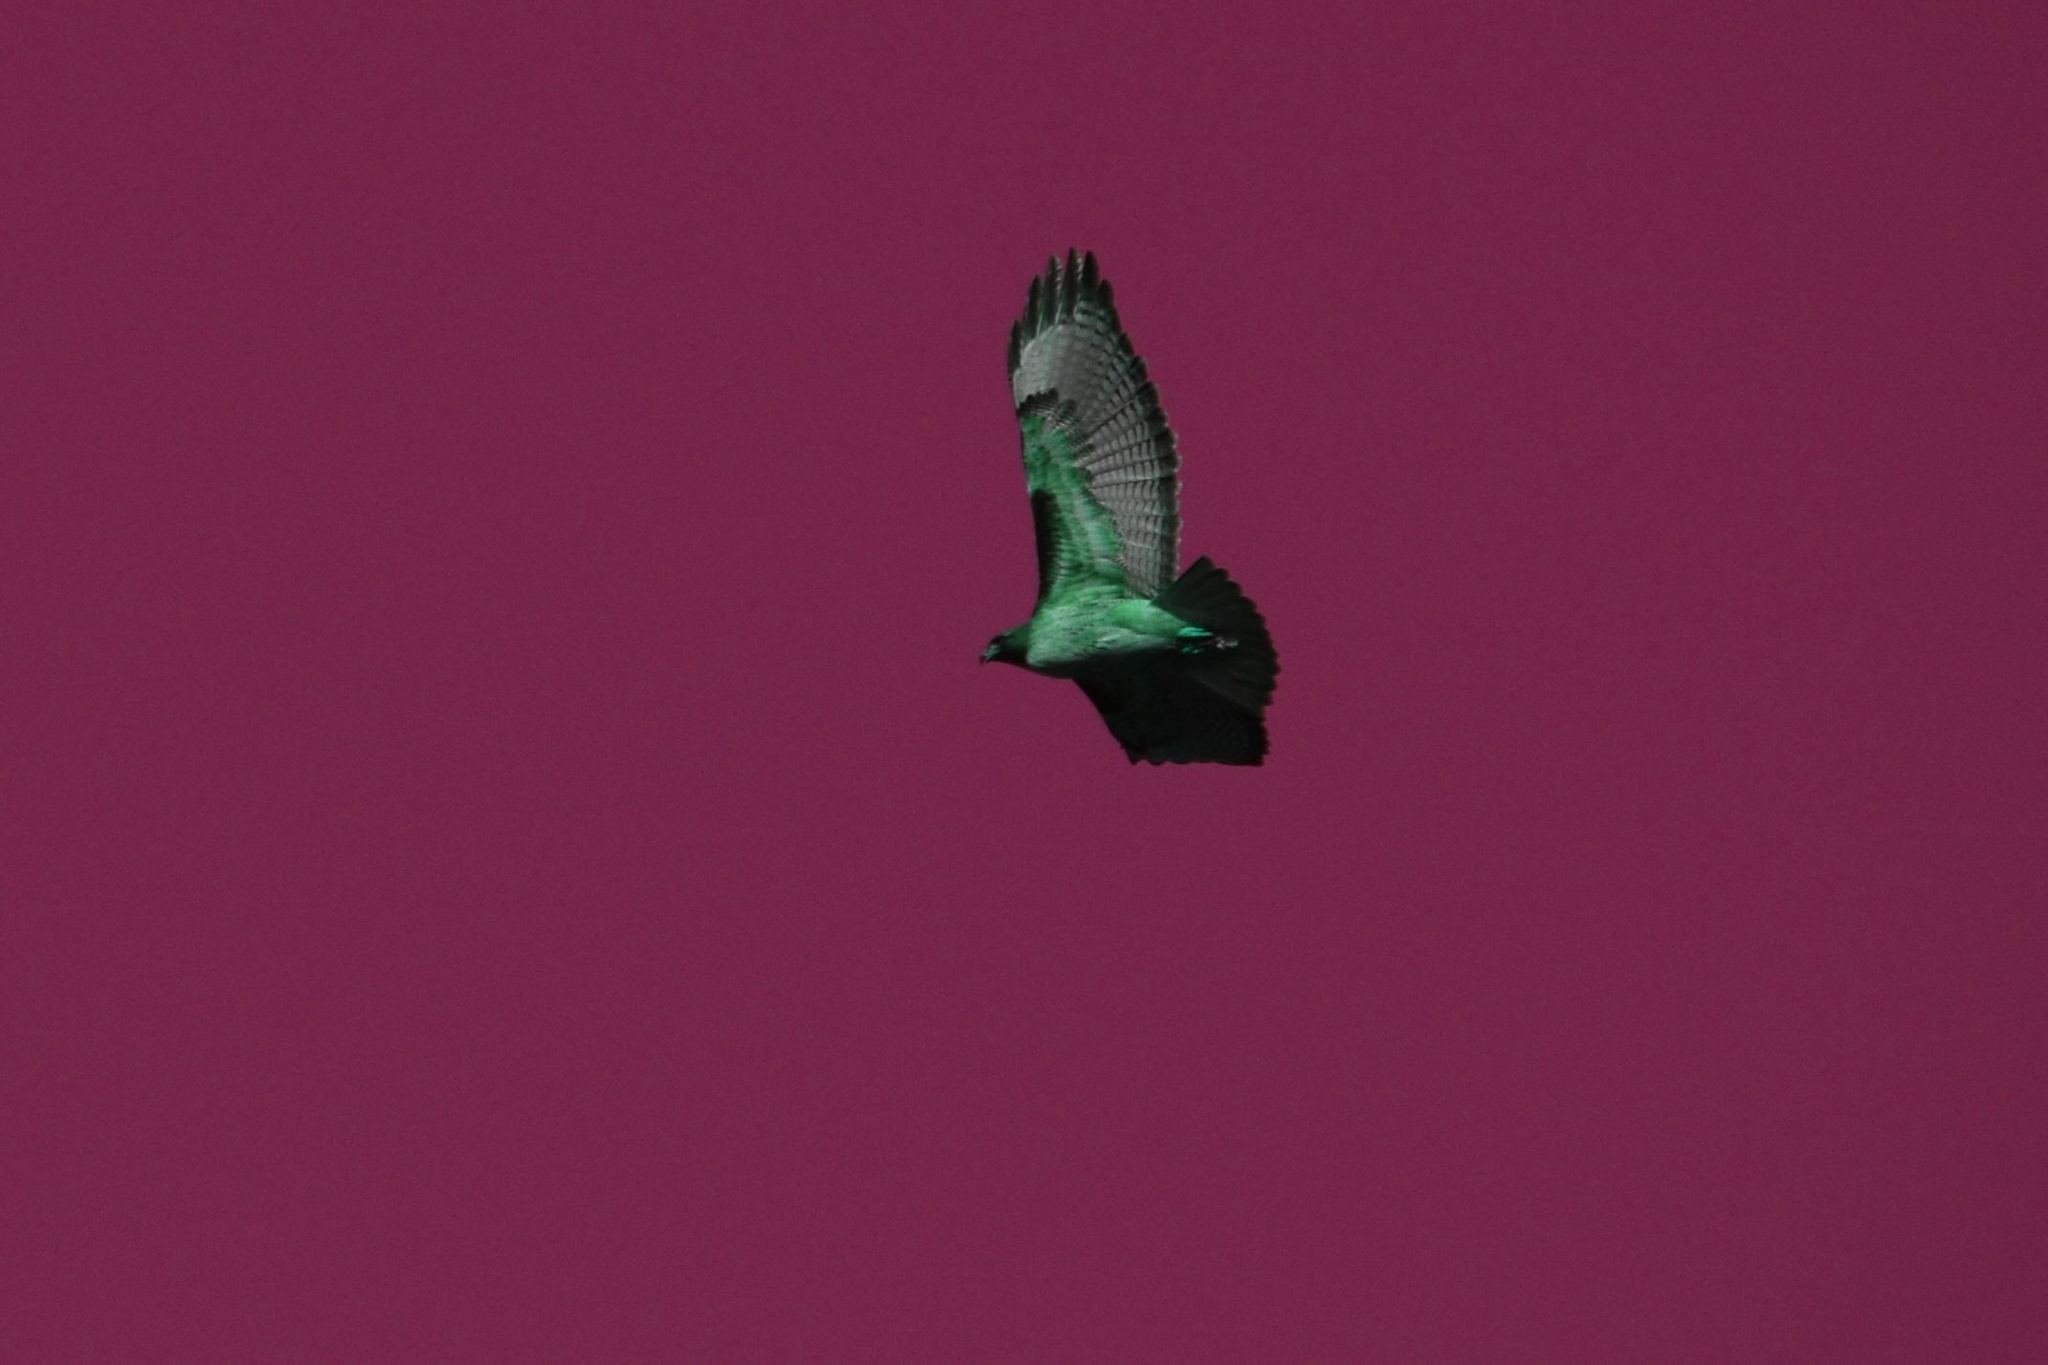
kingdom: Animalia
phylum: Chordata
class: Aves
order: Accipitriformes
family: Accipitridae
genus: Buteo
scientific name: Buteo jamaicensis
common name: Red-tailed hawk
